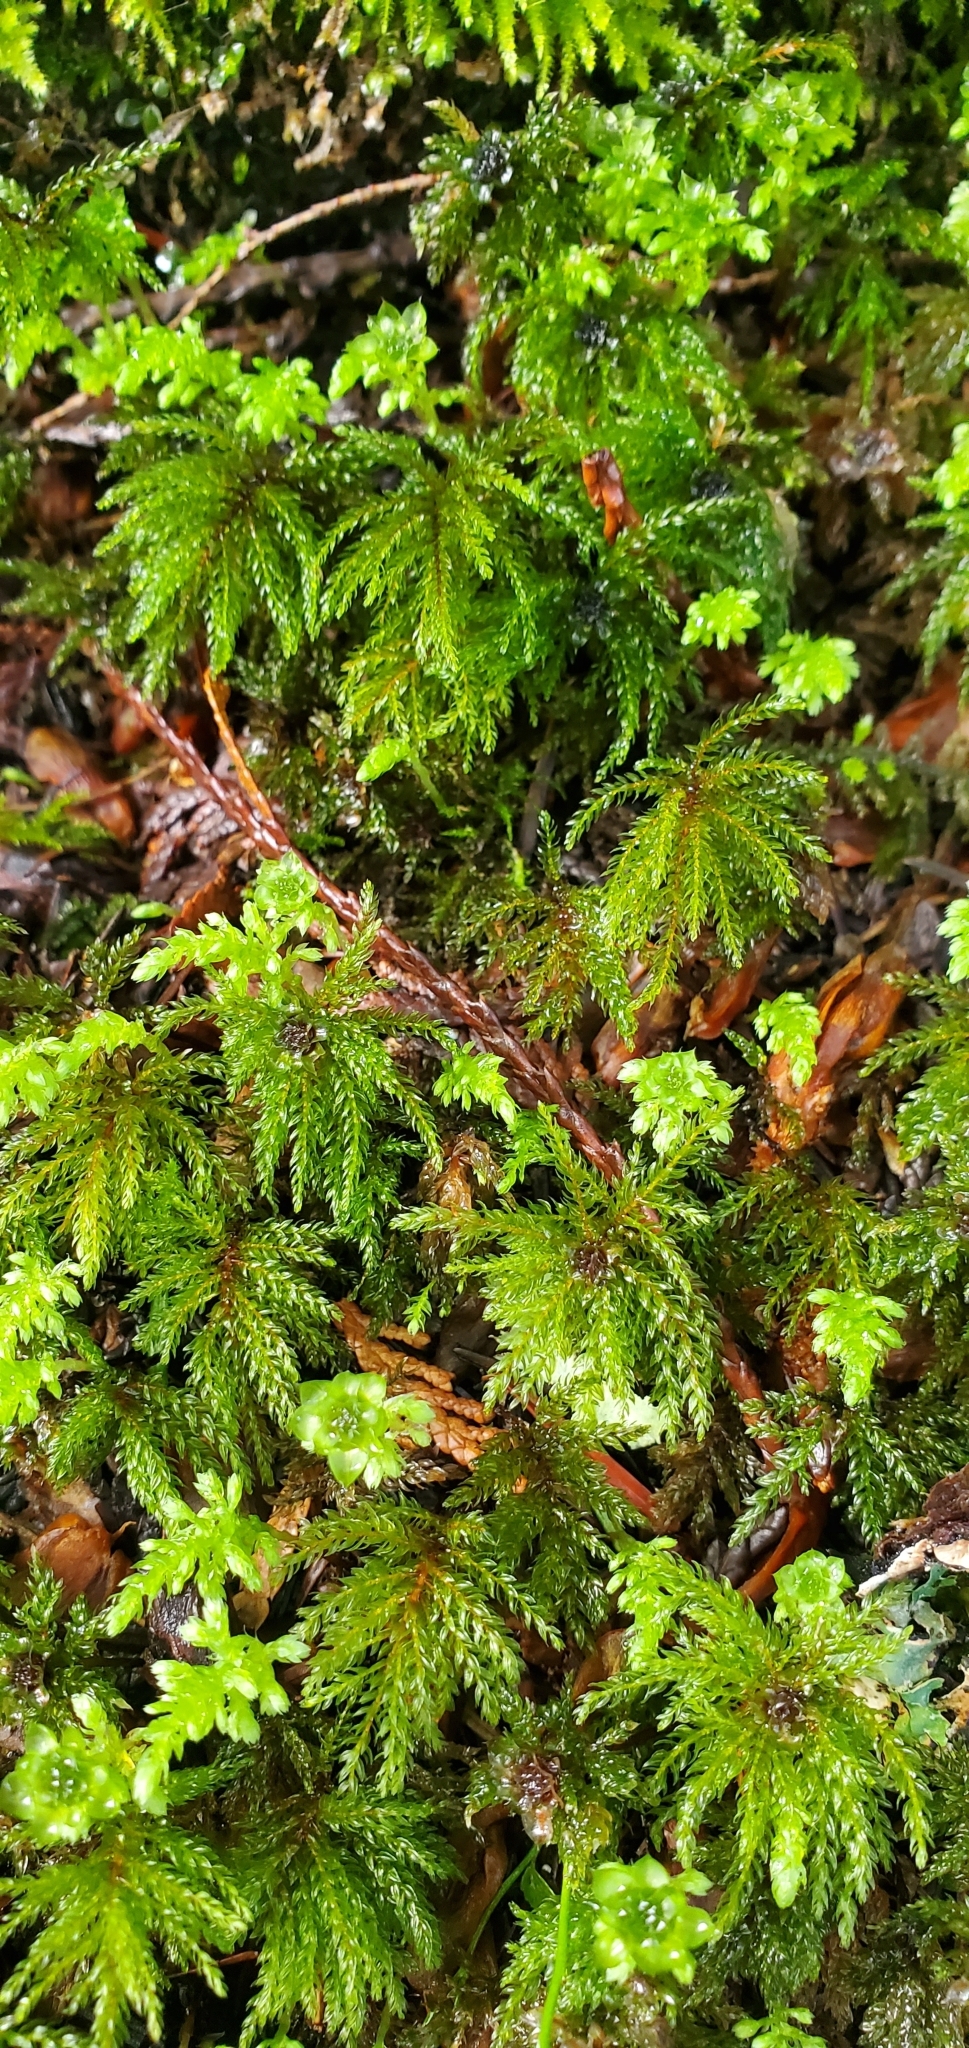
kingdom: Plantae
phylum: Bryophyta
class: Bryopsida
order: Bryales
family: Mniaceae
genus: Leucolepis
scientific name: Leucolepis acanthoneura
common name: Leucolepis umbrella moss
